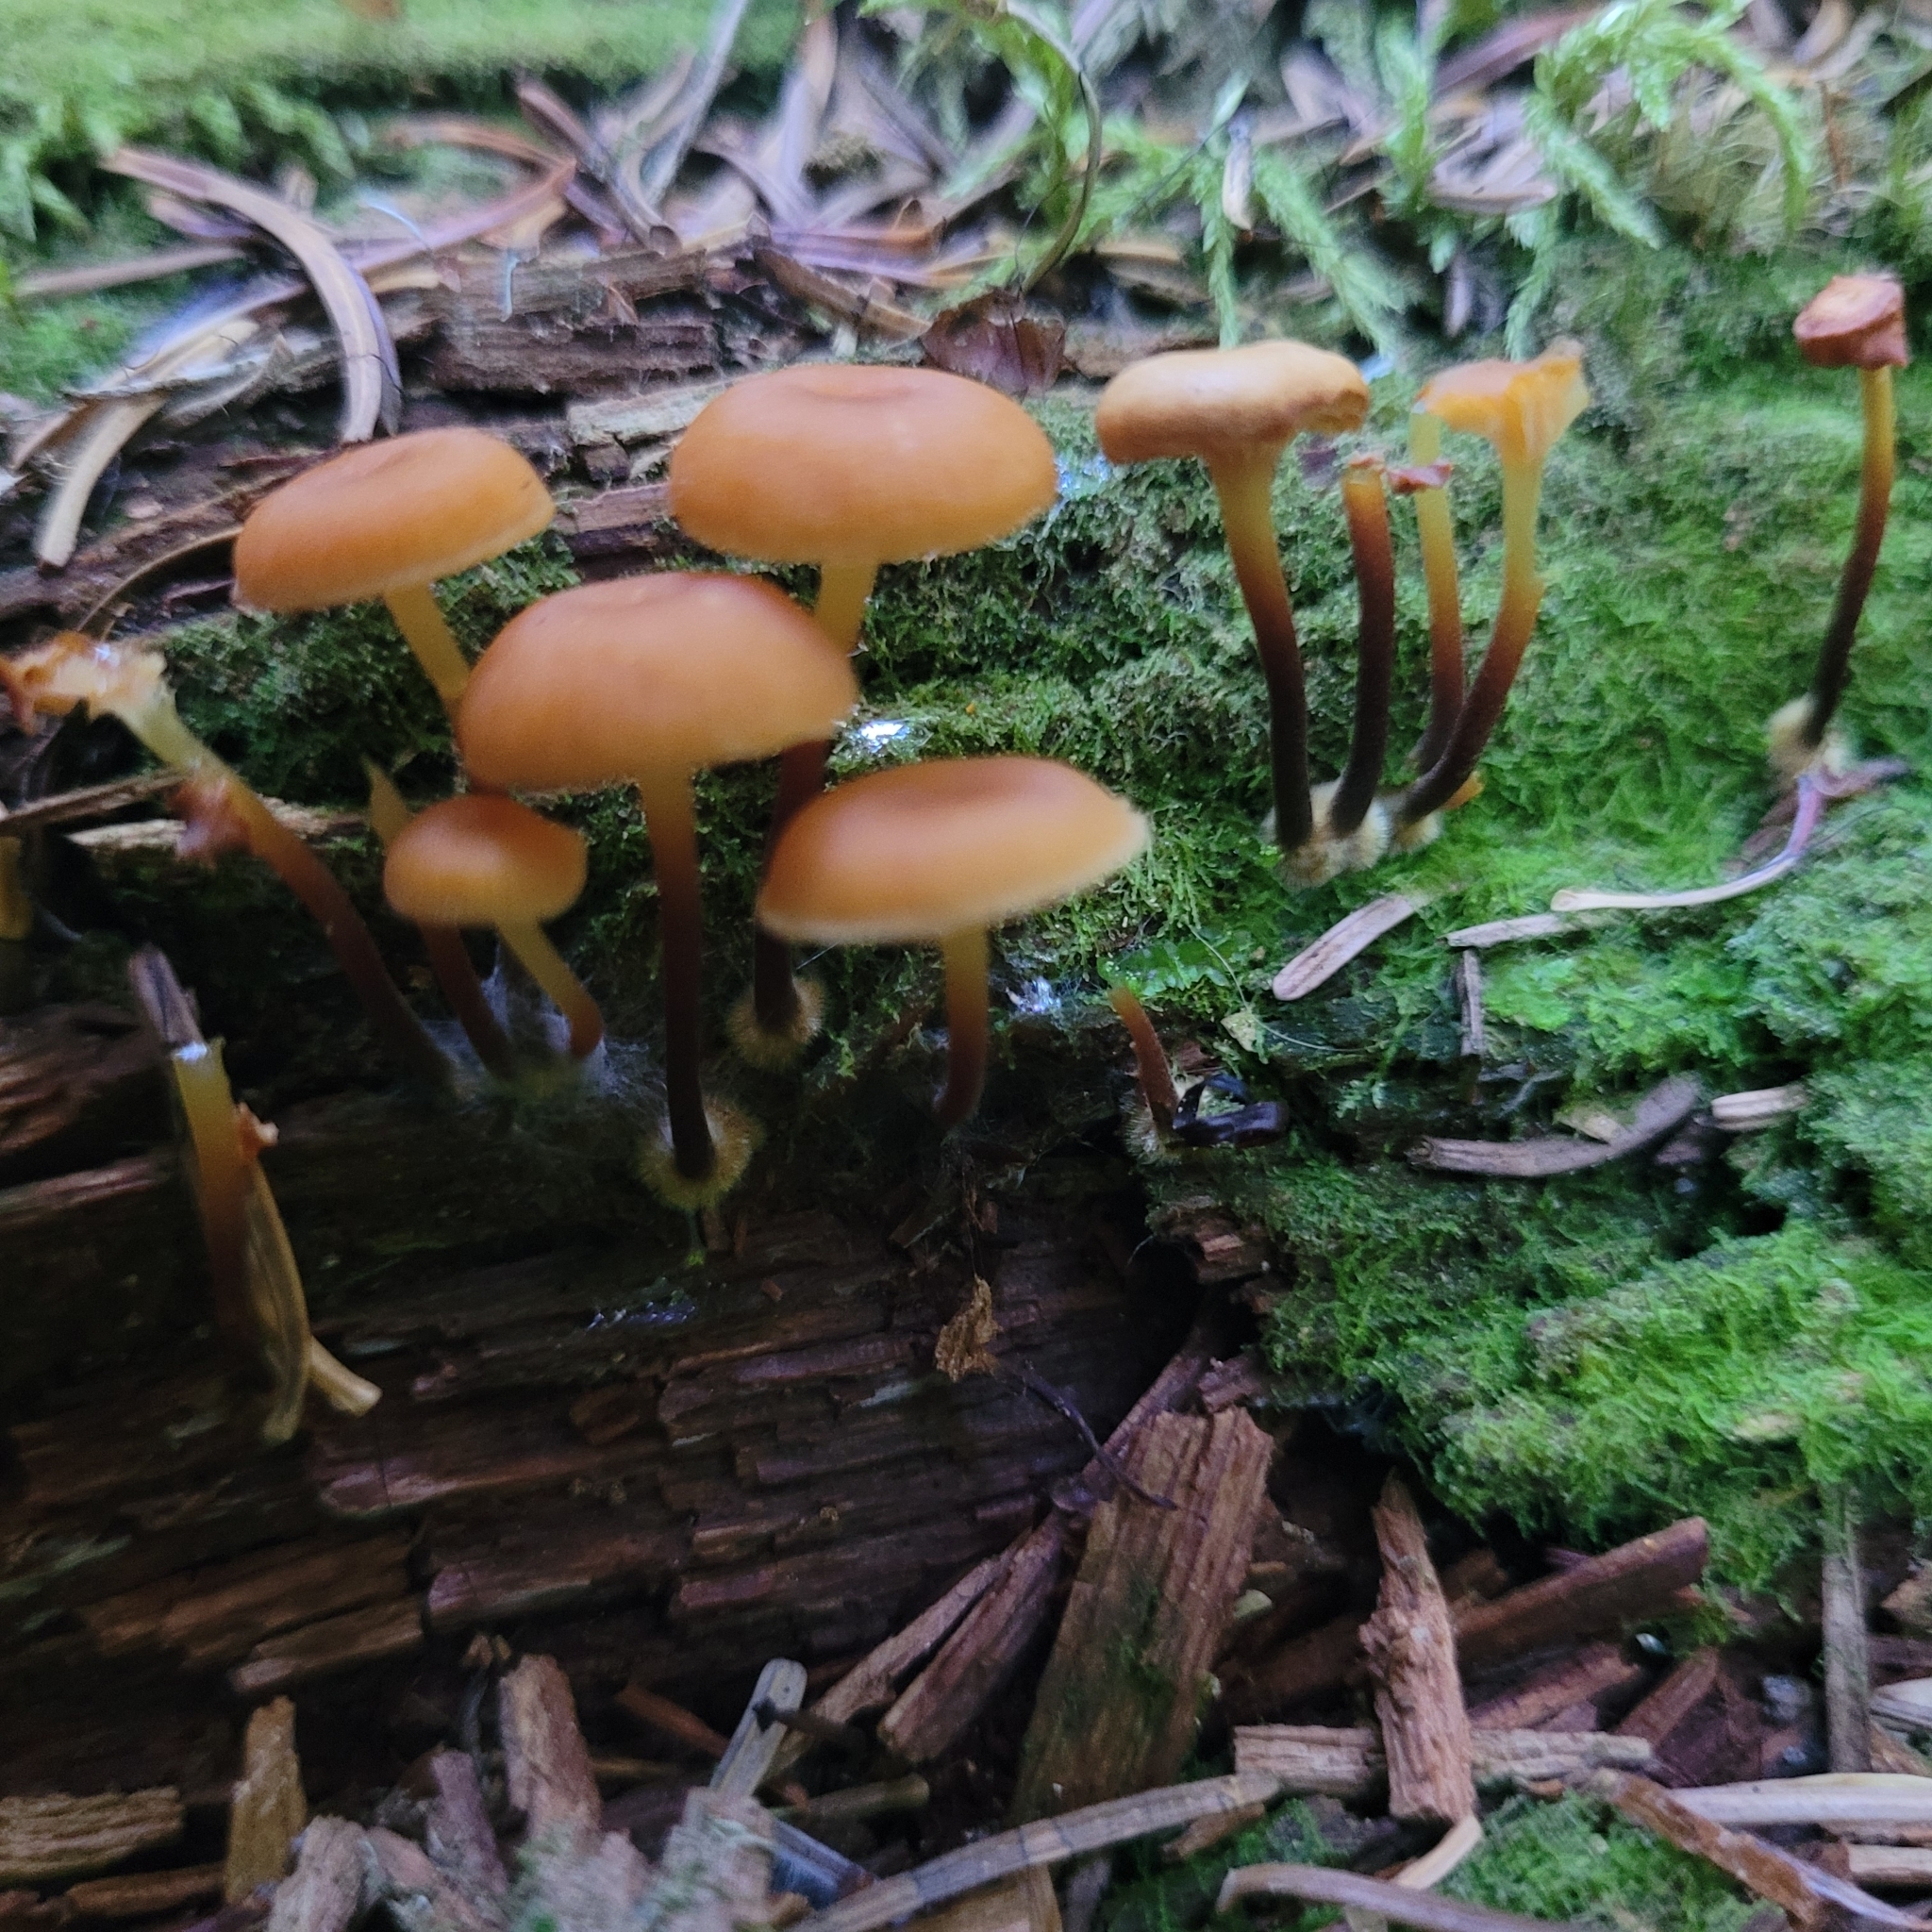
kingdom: Fungi
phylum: Basidiomycota
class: Agaricomycetes
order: Agaricales
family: Mycenaceae
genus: Xeromphalina
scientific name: Xeromphalina campanella
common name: Pinewood gingertail
